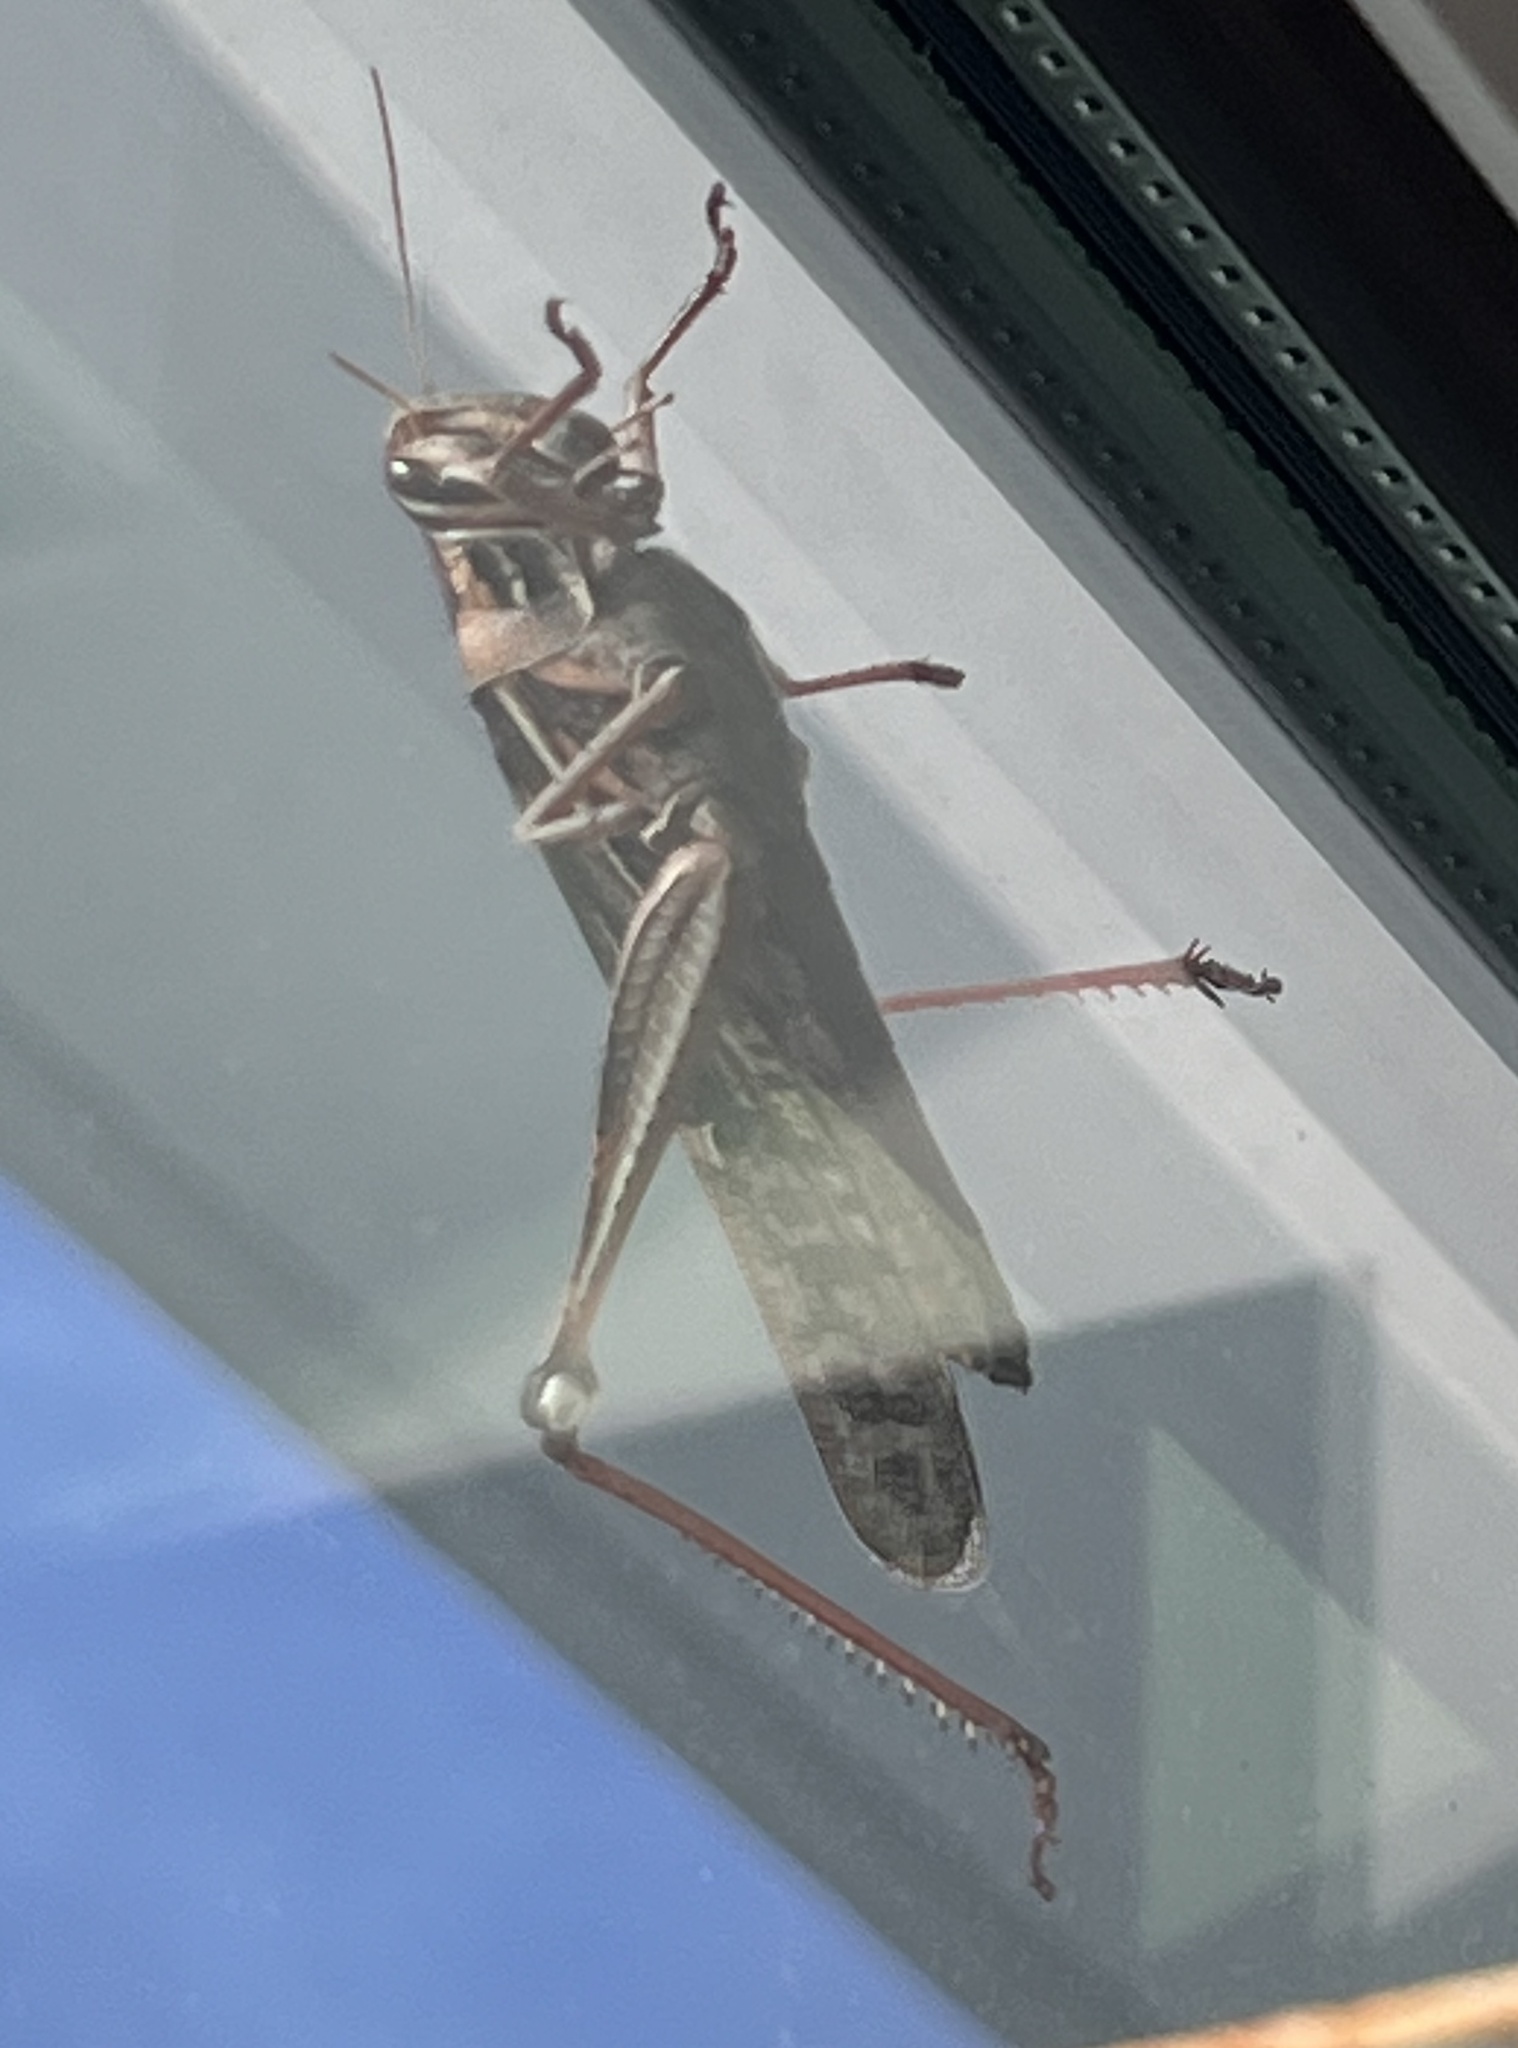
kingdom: Animalia
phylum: Arthropoda
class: Insecta
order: Orthoptera
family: Acrididae
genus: Schistocerca
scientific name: Schistocerca americana
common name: American bird locust
